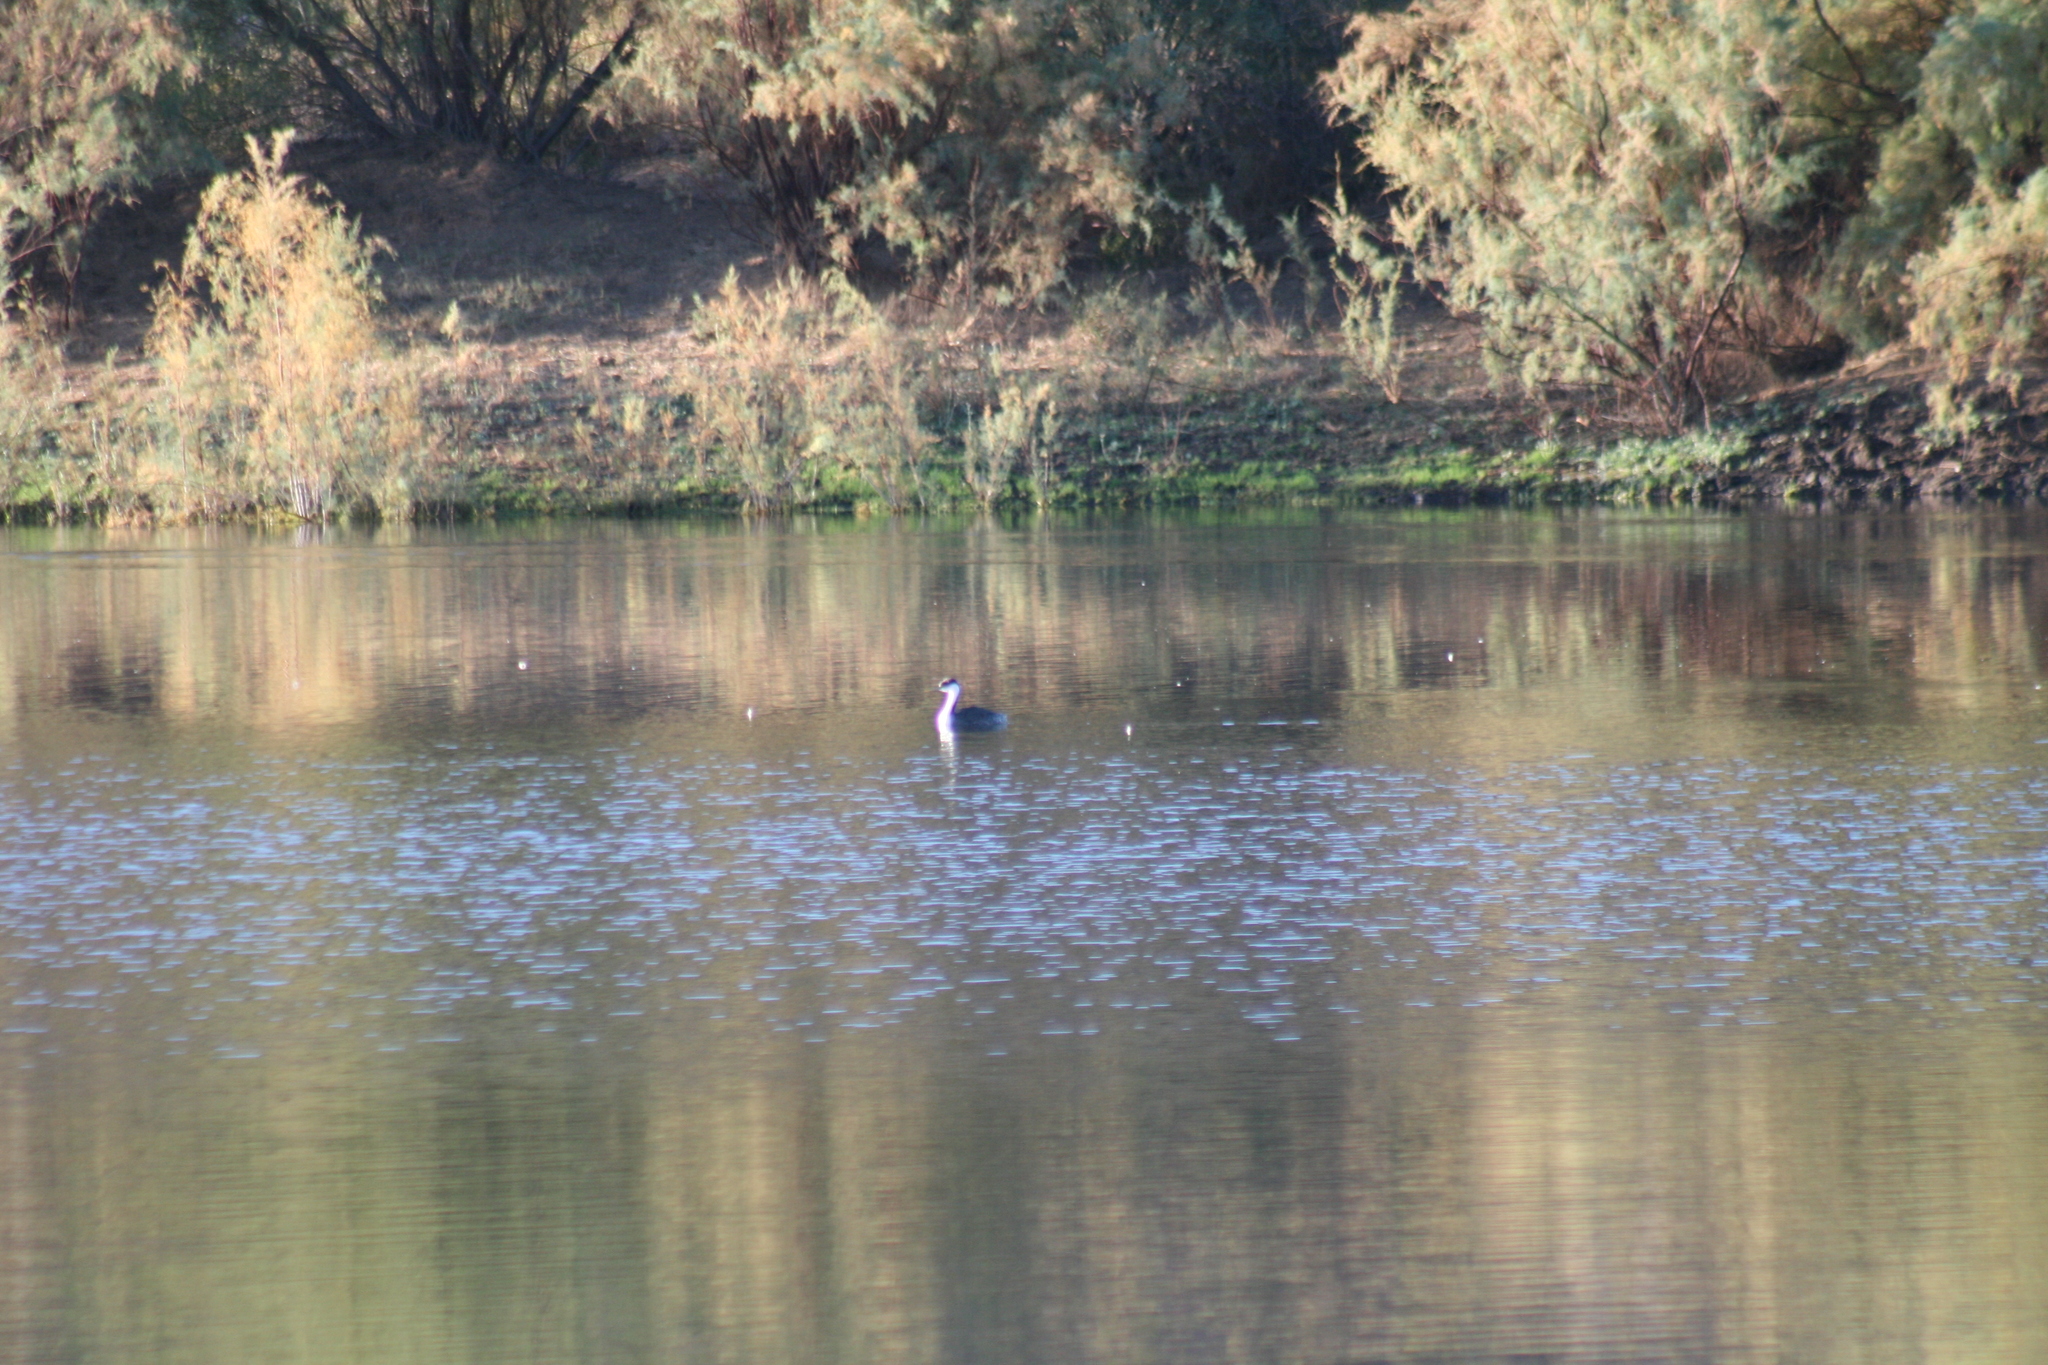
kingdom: Animalia
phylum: Chordata
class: Aves
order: Podicipediformes
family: Podicipedidae
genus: Aechmophorus
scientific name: Aechmophorus occidentalis
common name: Western grebe
